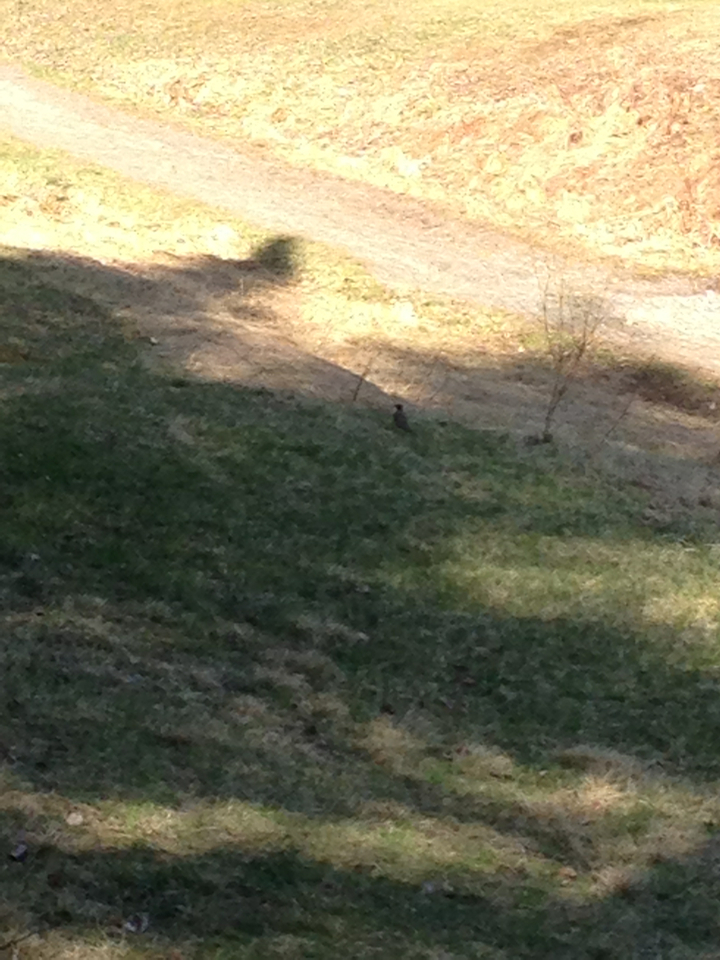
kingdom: Animalia
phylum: Chordata
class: Aves
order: Passeriformes
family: Turdidae
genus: Turdus
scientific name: Turdus migratorius
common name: American robin
